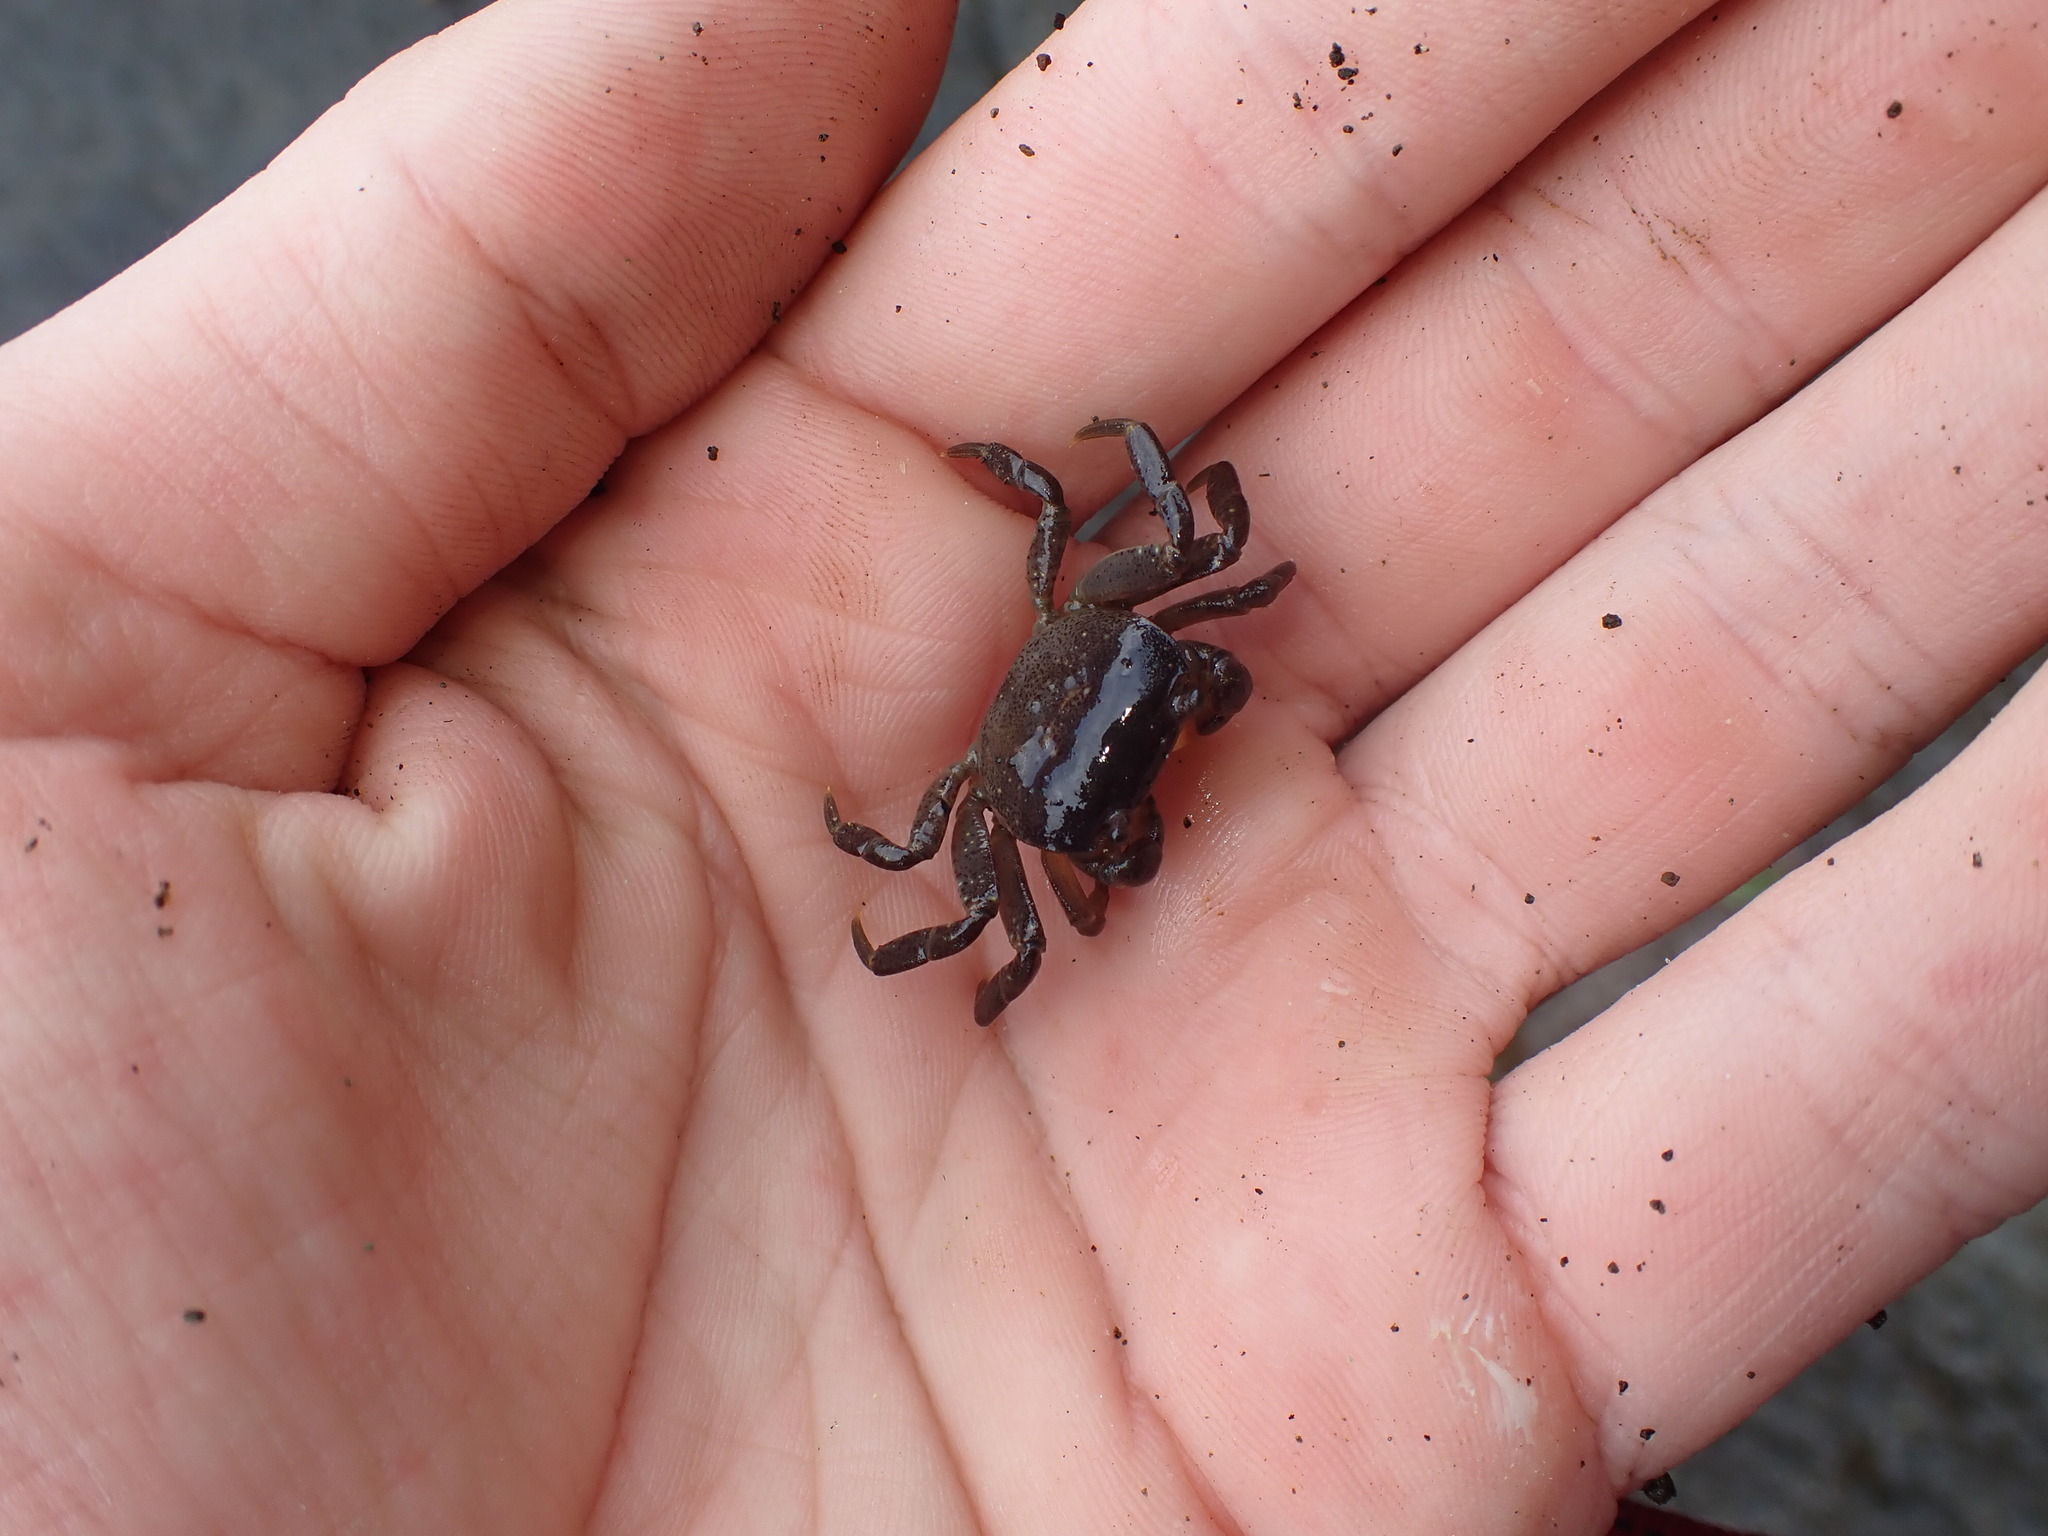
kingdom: Animalia
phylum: Arthropoda
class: Malacostraca
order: Decapoda
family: Varunidae
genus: Cyclograpsus
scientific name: Cyclograpsus lavauxi
